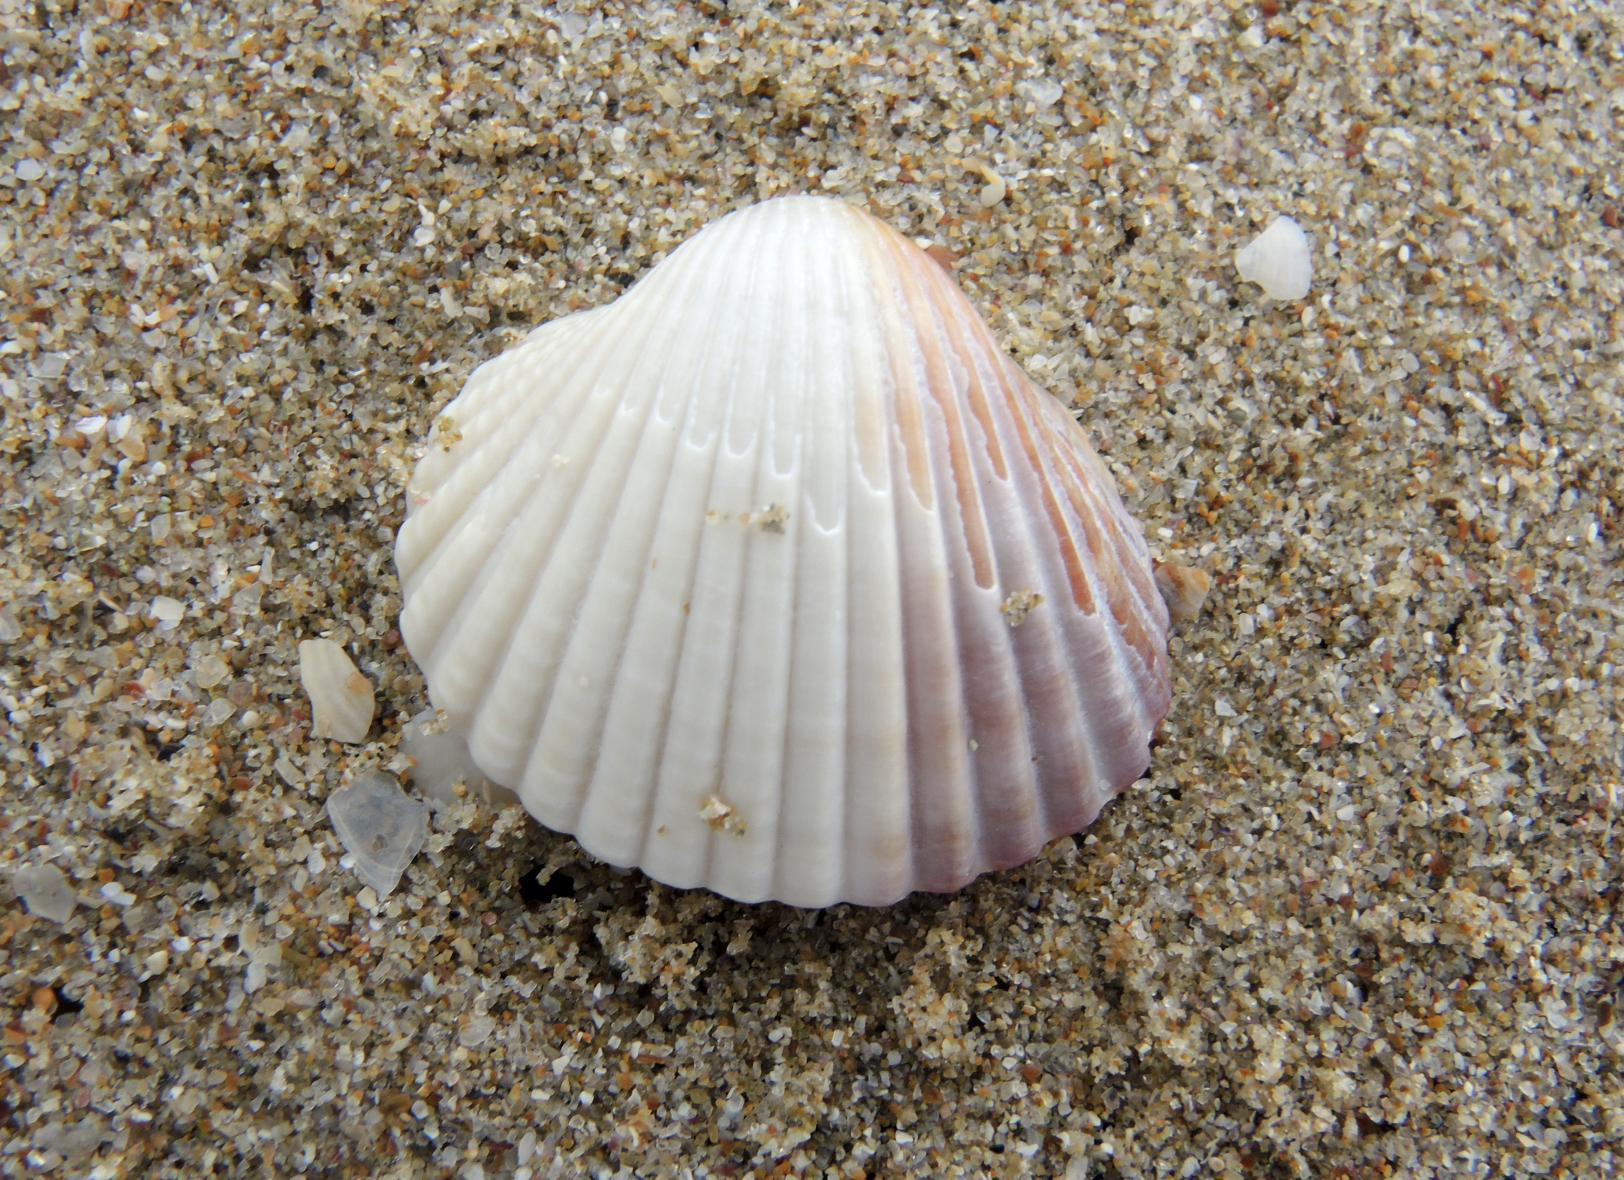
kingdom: Animalia
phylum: Mollusca
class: Bivalvia
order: Cardiida
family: Cardiidae
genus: Cerastoderma
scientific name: Cerastoderma glaucum
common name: Lagoon cockle
